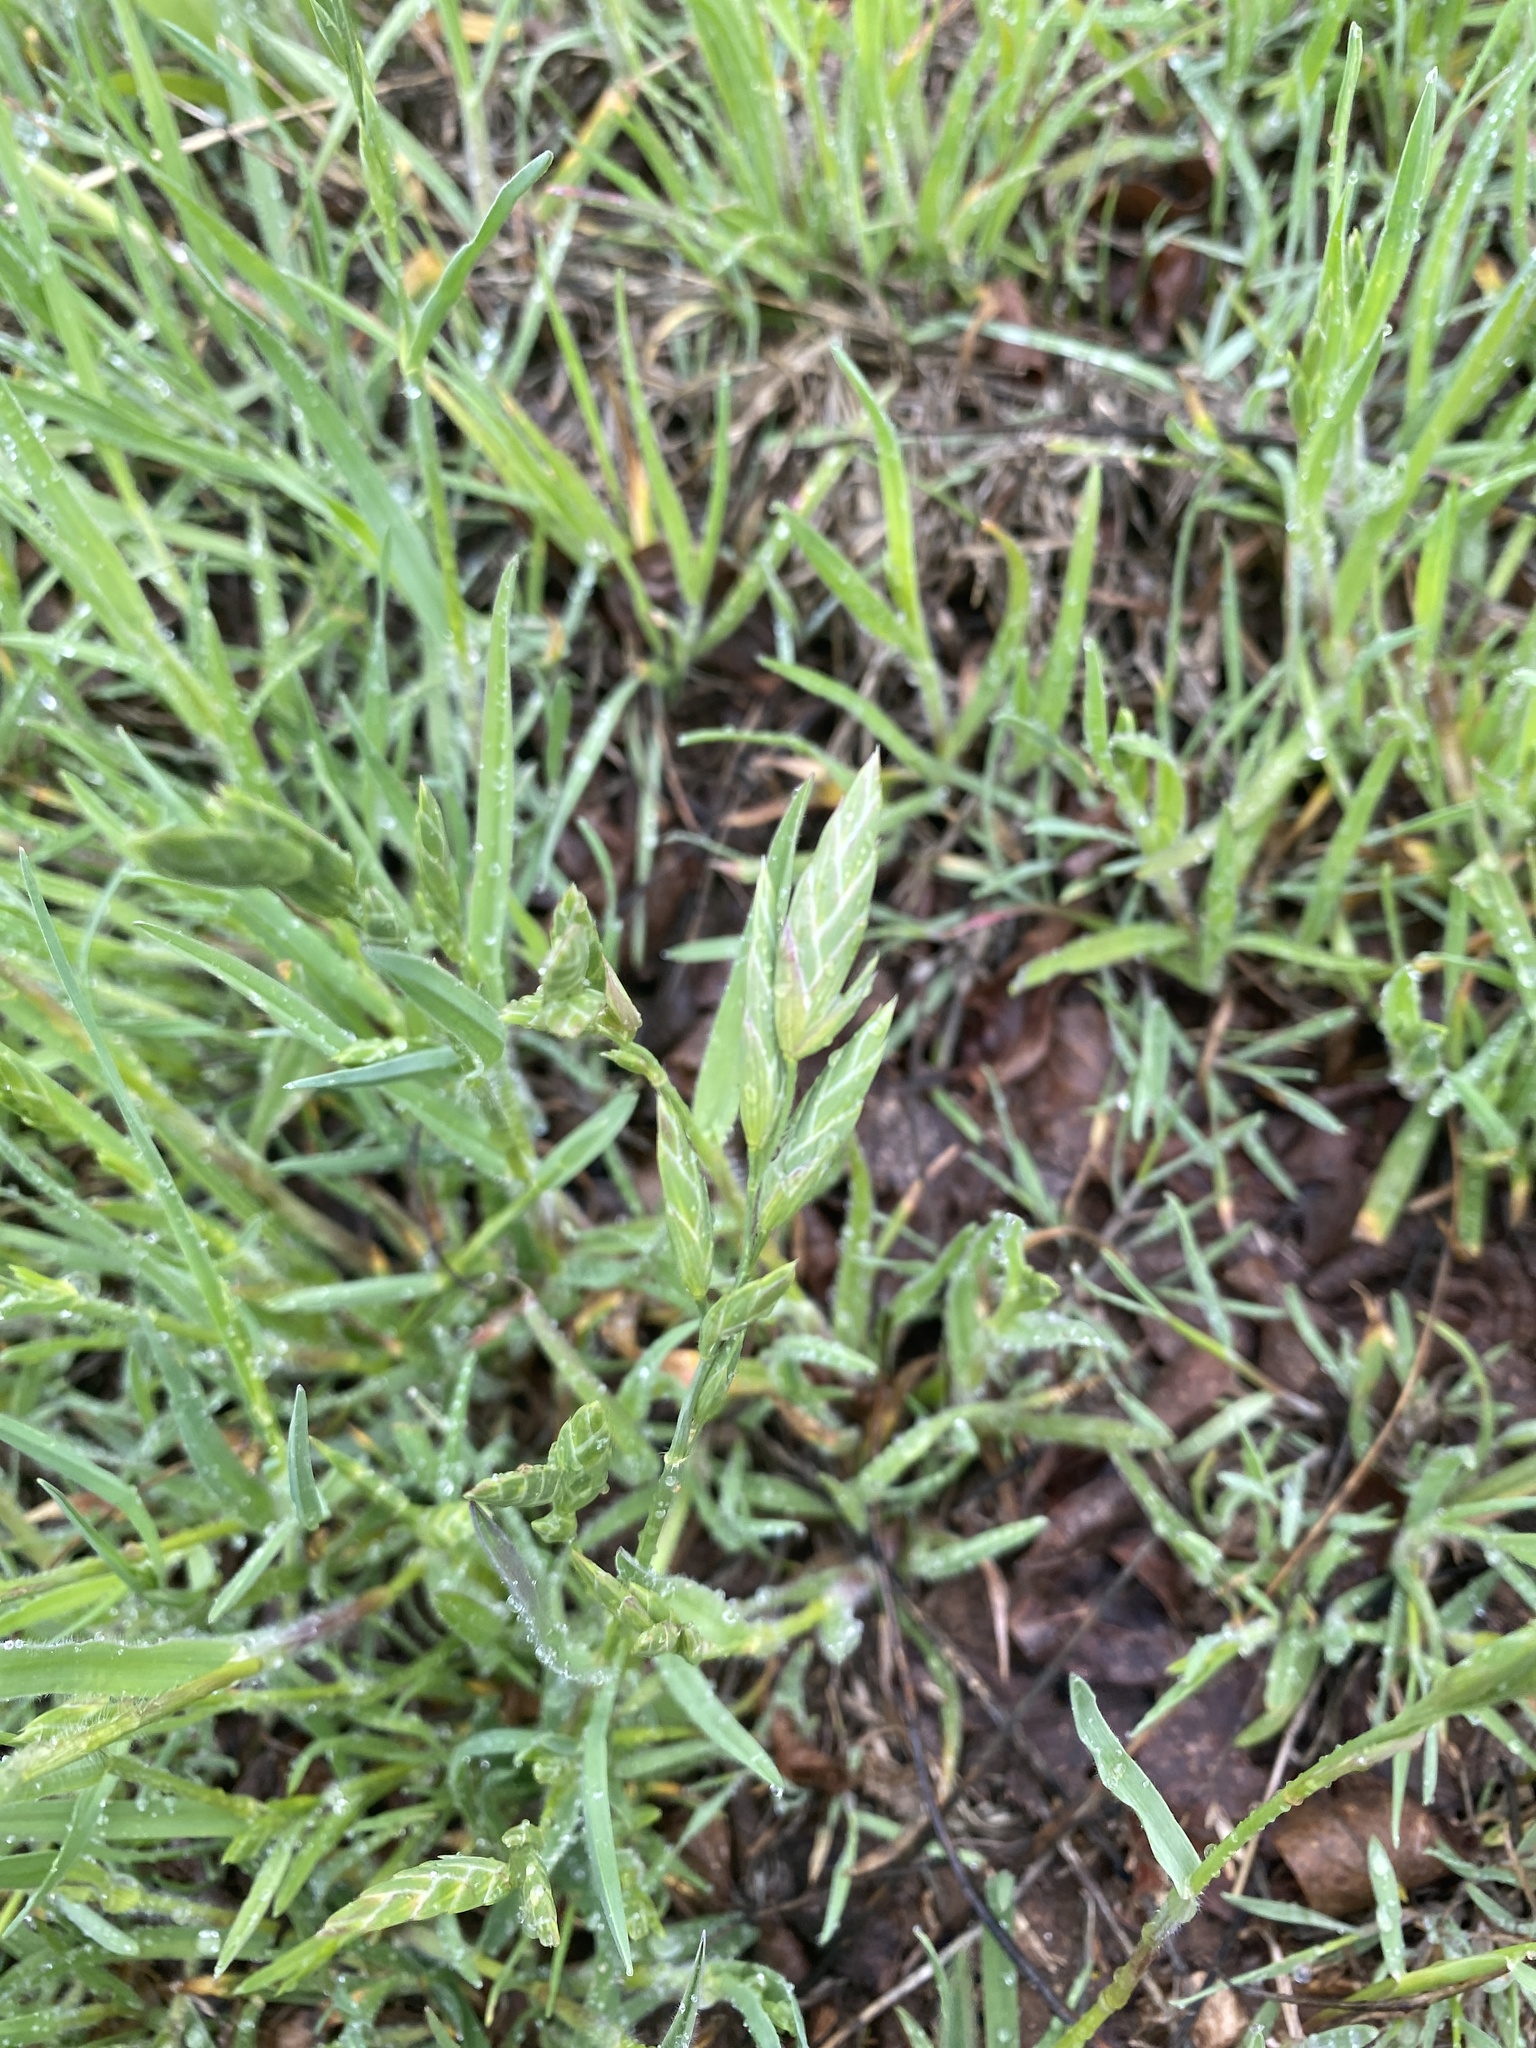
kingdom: Plantae
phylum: Tracheophyta
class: Liliopsida
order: Poales
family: Poaceae
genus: Bromus
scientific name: Bromus catharticus
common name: Rescuegrass
